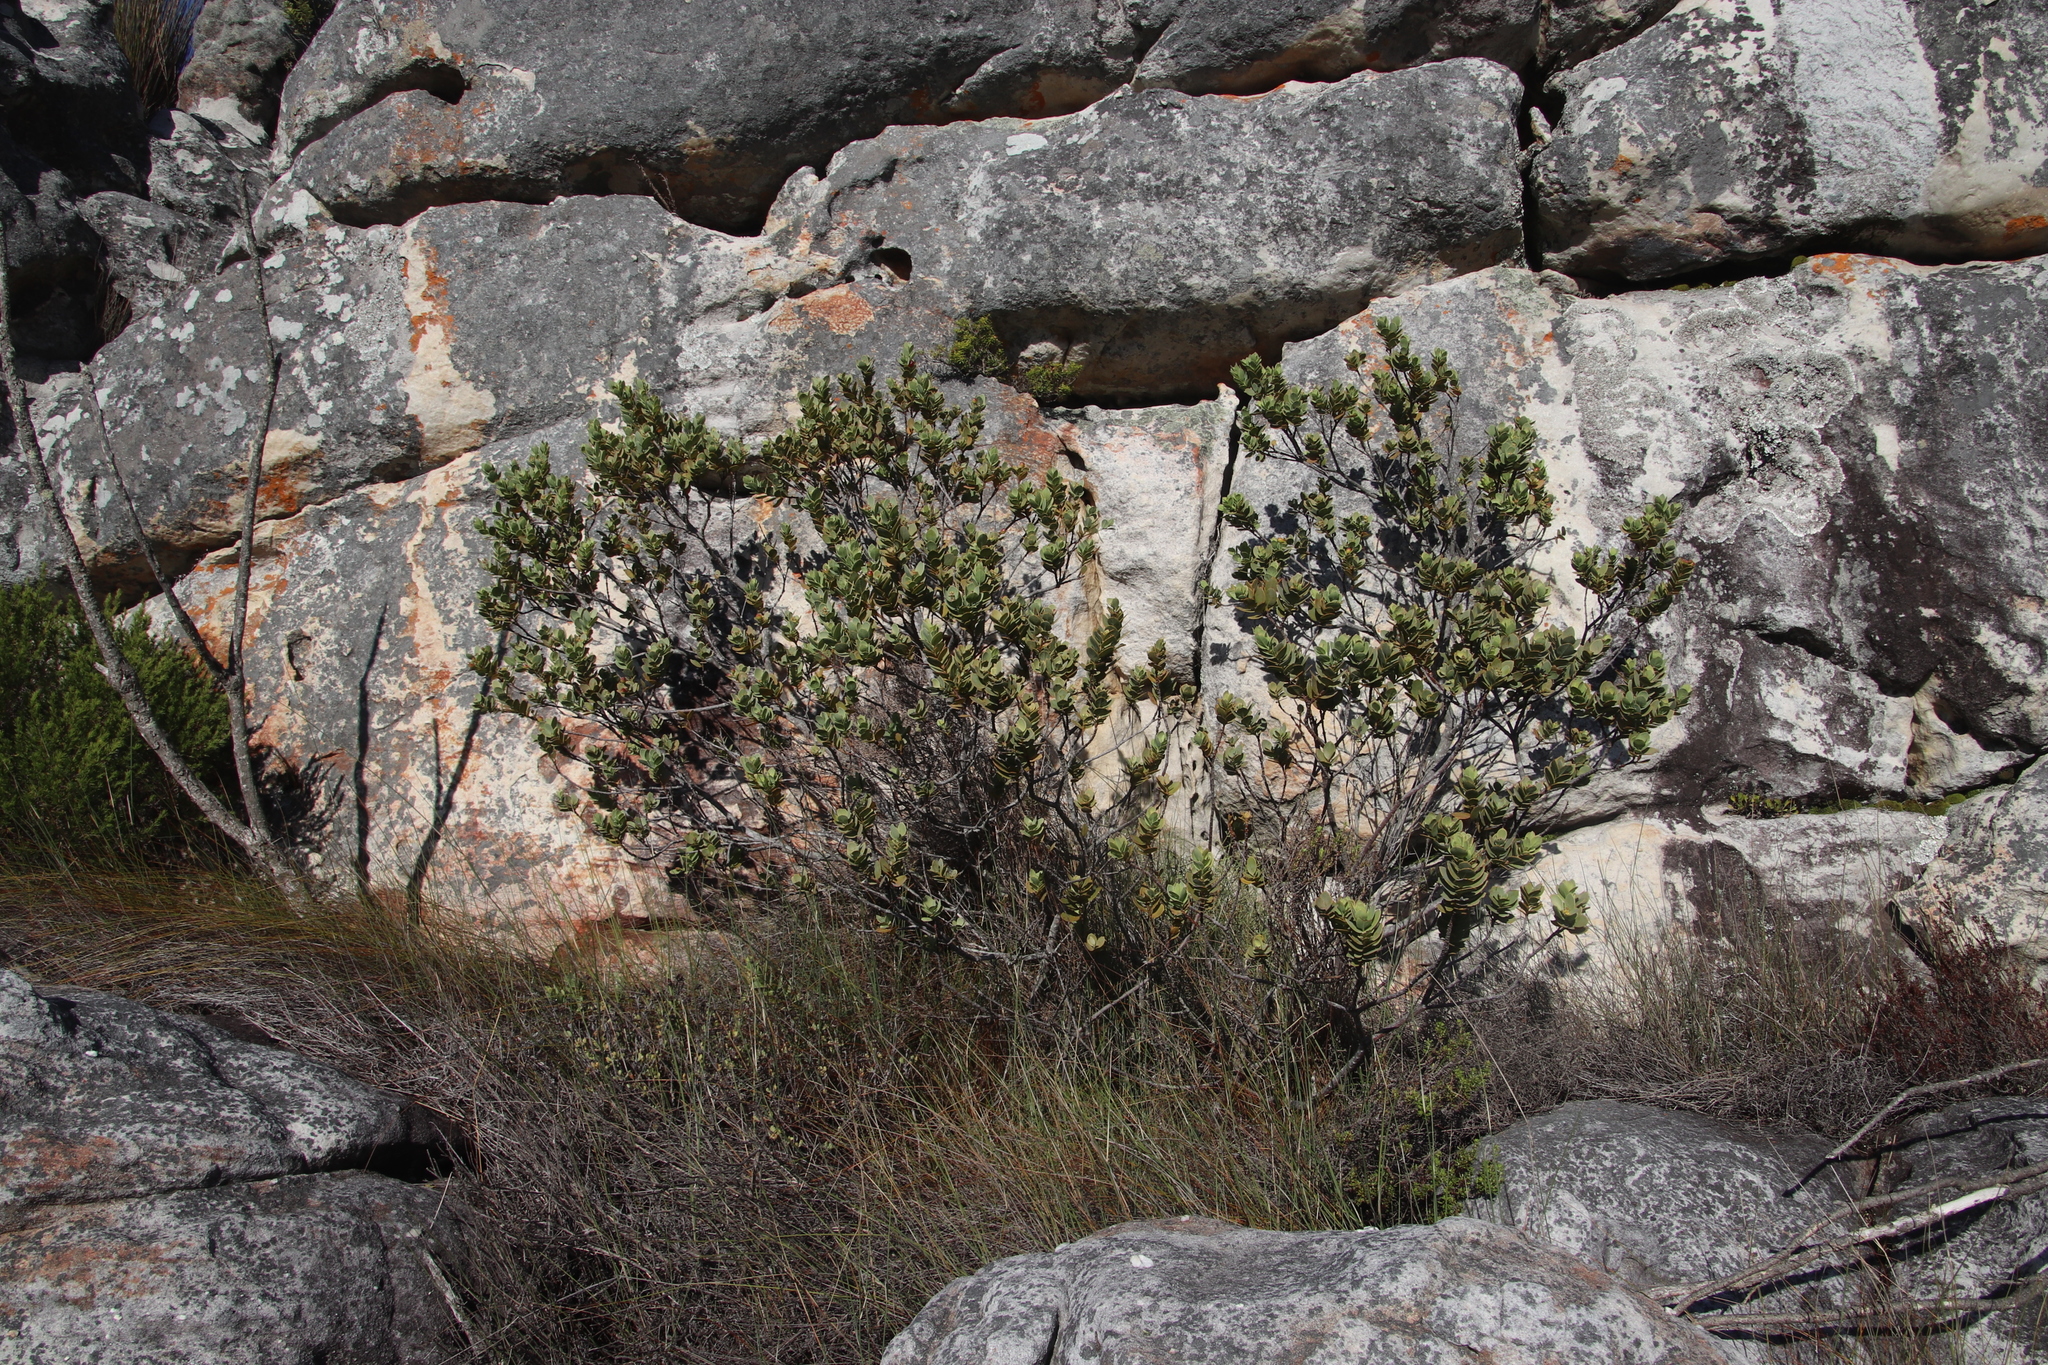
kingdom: Plantae
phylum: Tracheophyta
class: Magnoliopsida
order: Santalales
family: Santalaceae
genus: Osyris
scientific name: Osyris compressa
